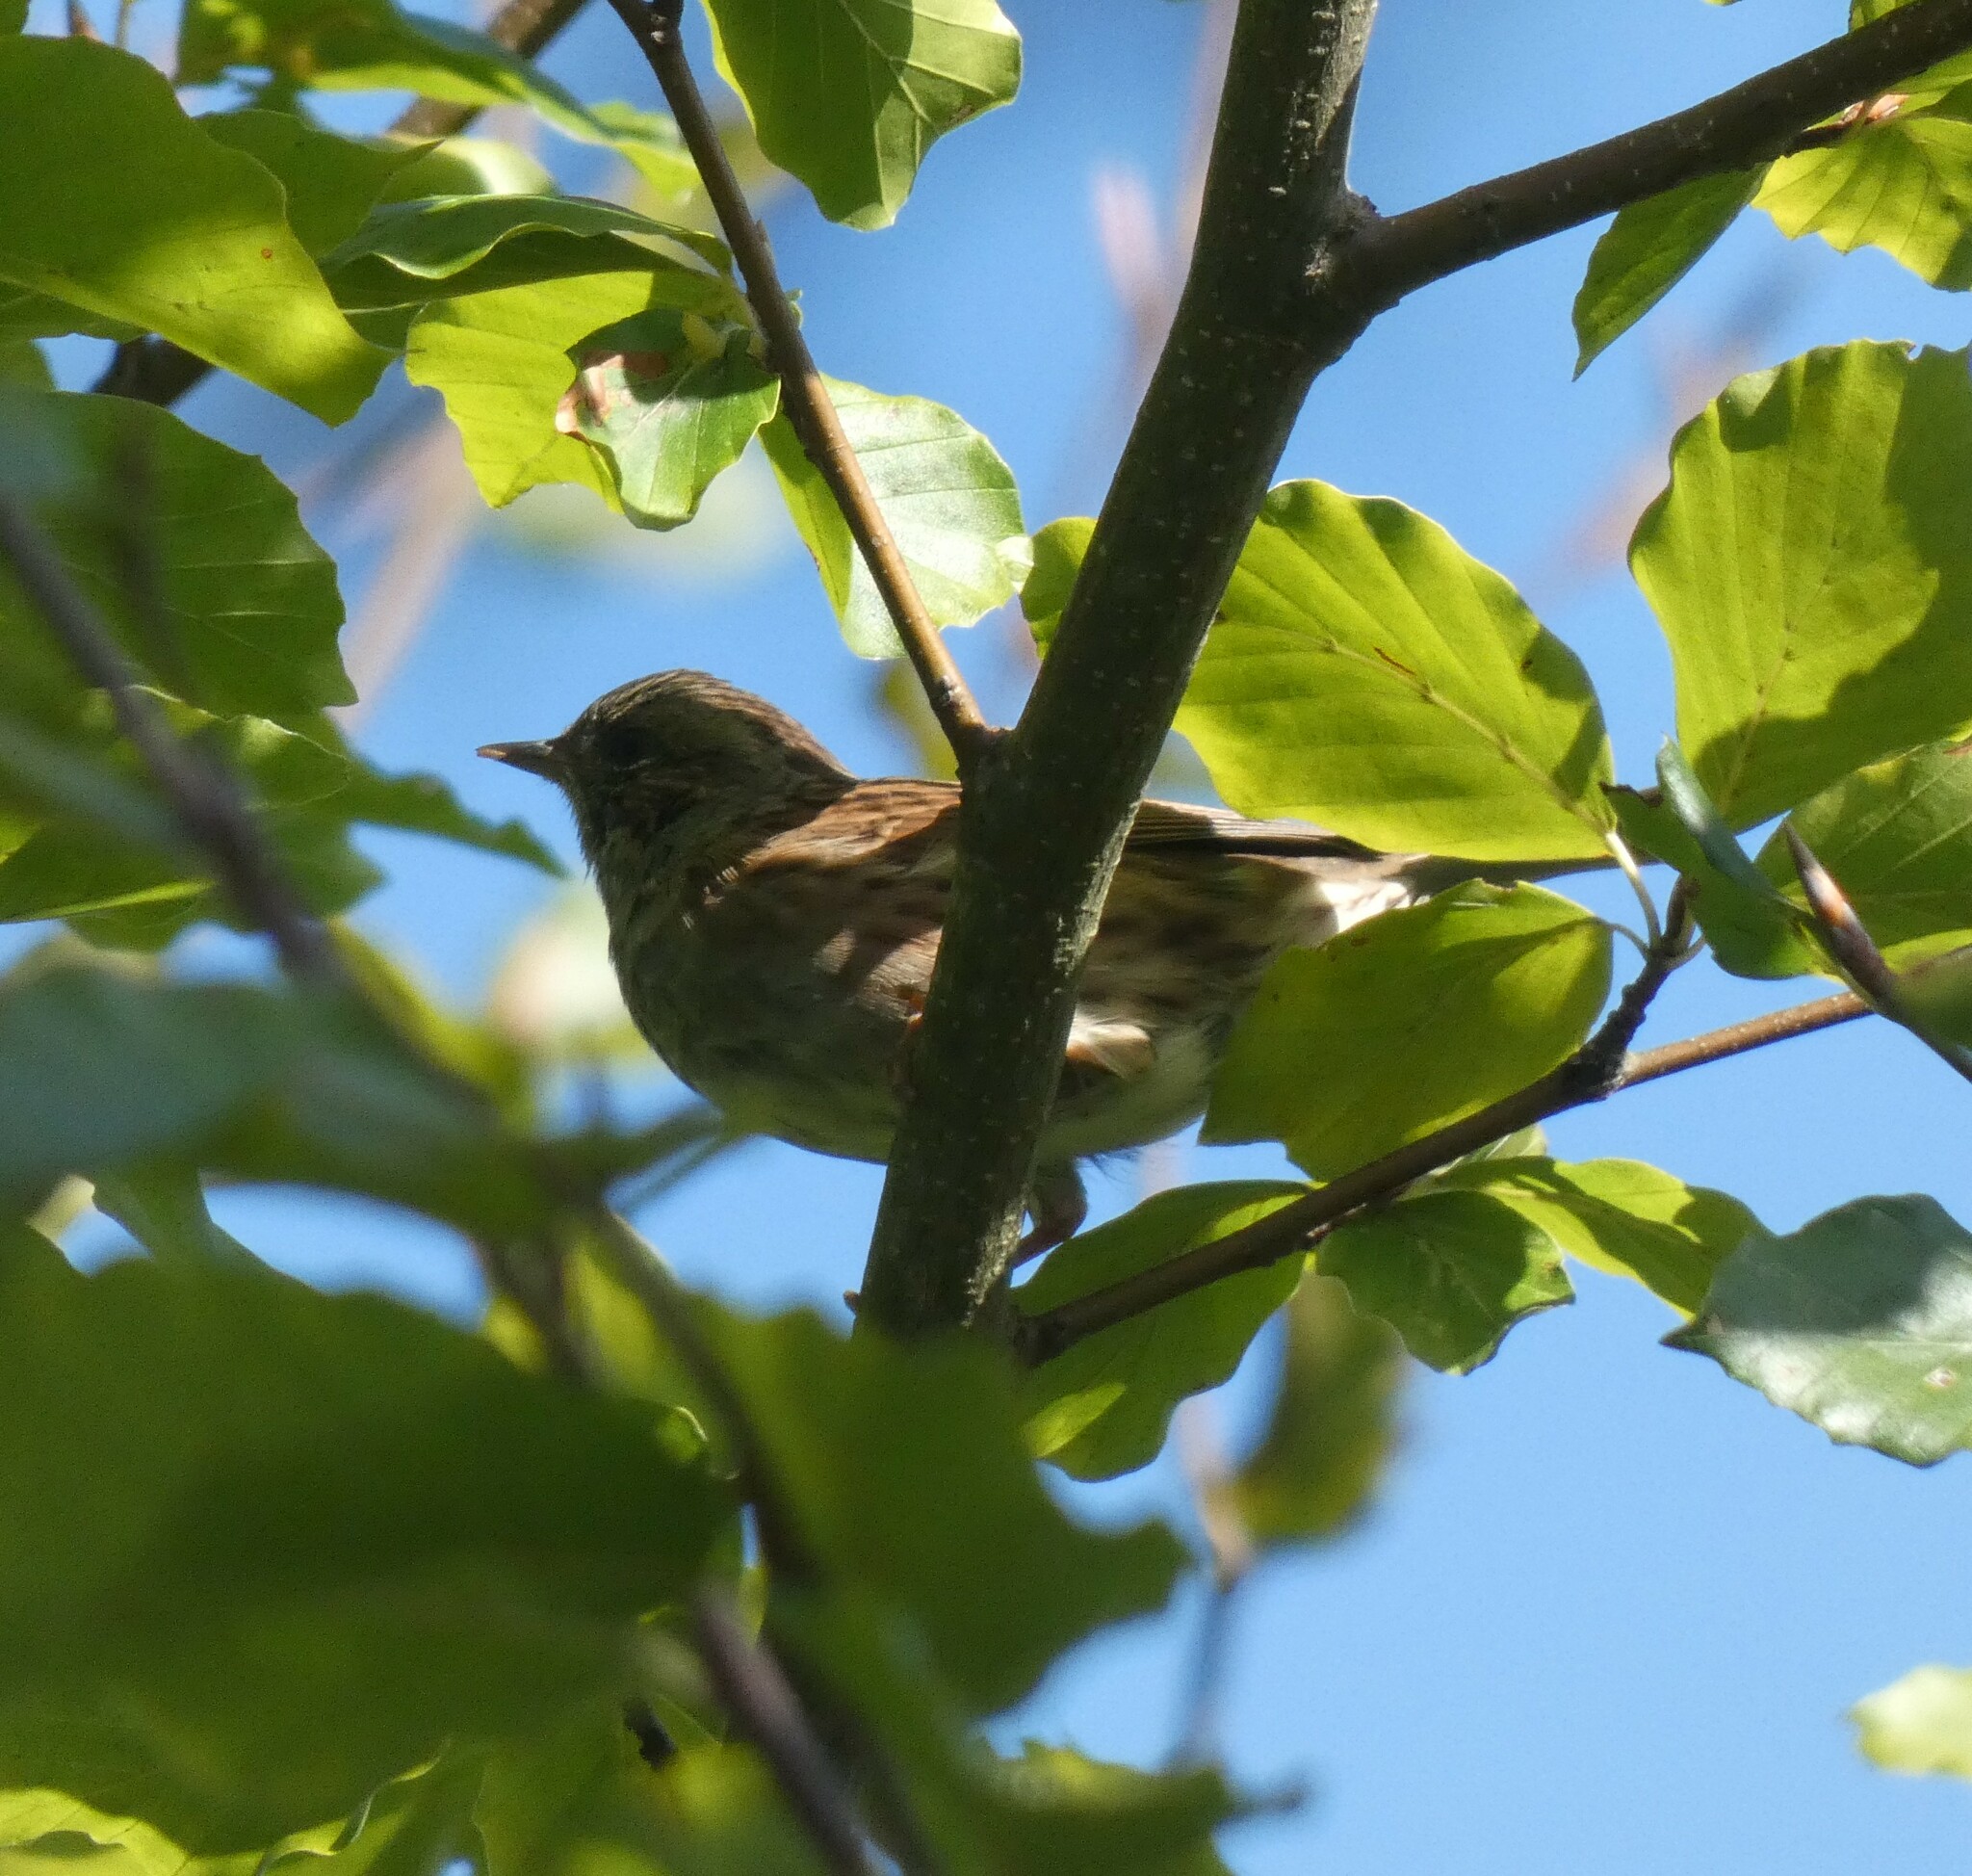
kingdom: Animalia
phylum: Chordata
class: Aves
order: Passeriformes
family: Prunellidae
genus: Prunella
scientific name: Prunella modularis
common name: Dunnock
